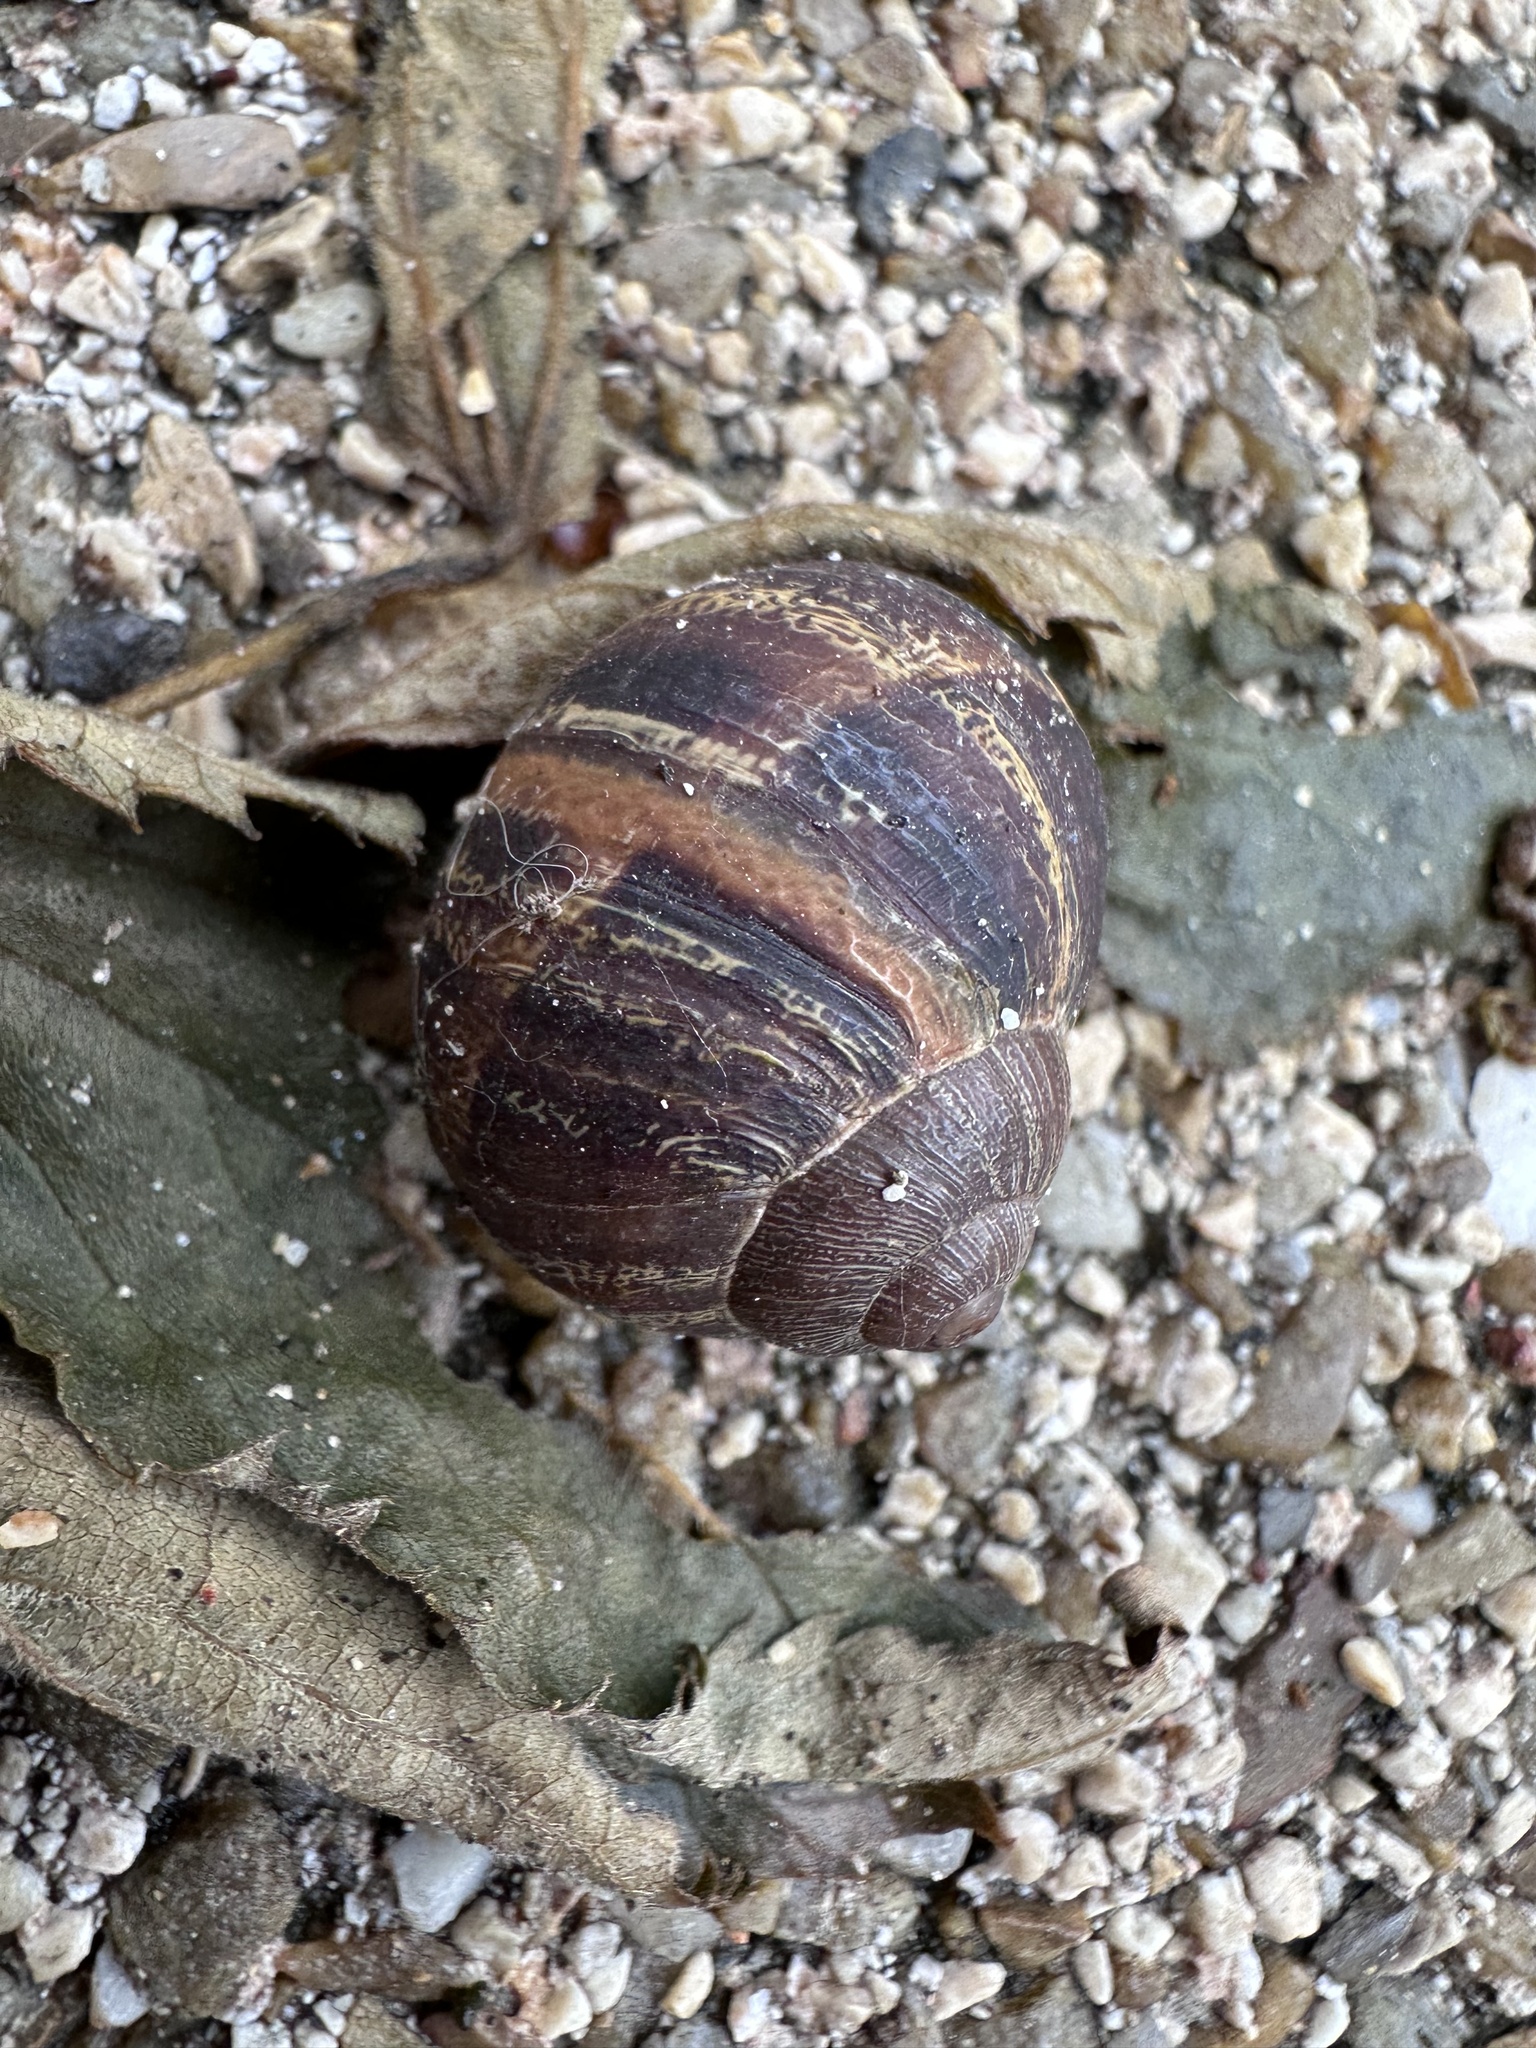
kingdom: Animalia
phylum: Mollusca
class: Gastropoda
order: Stylommatophora
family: Helicidae
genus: Cornu
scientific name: Cornu aspersum
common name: Brown garden snail
